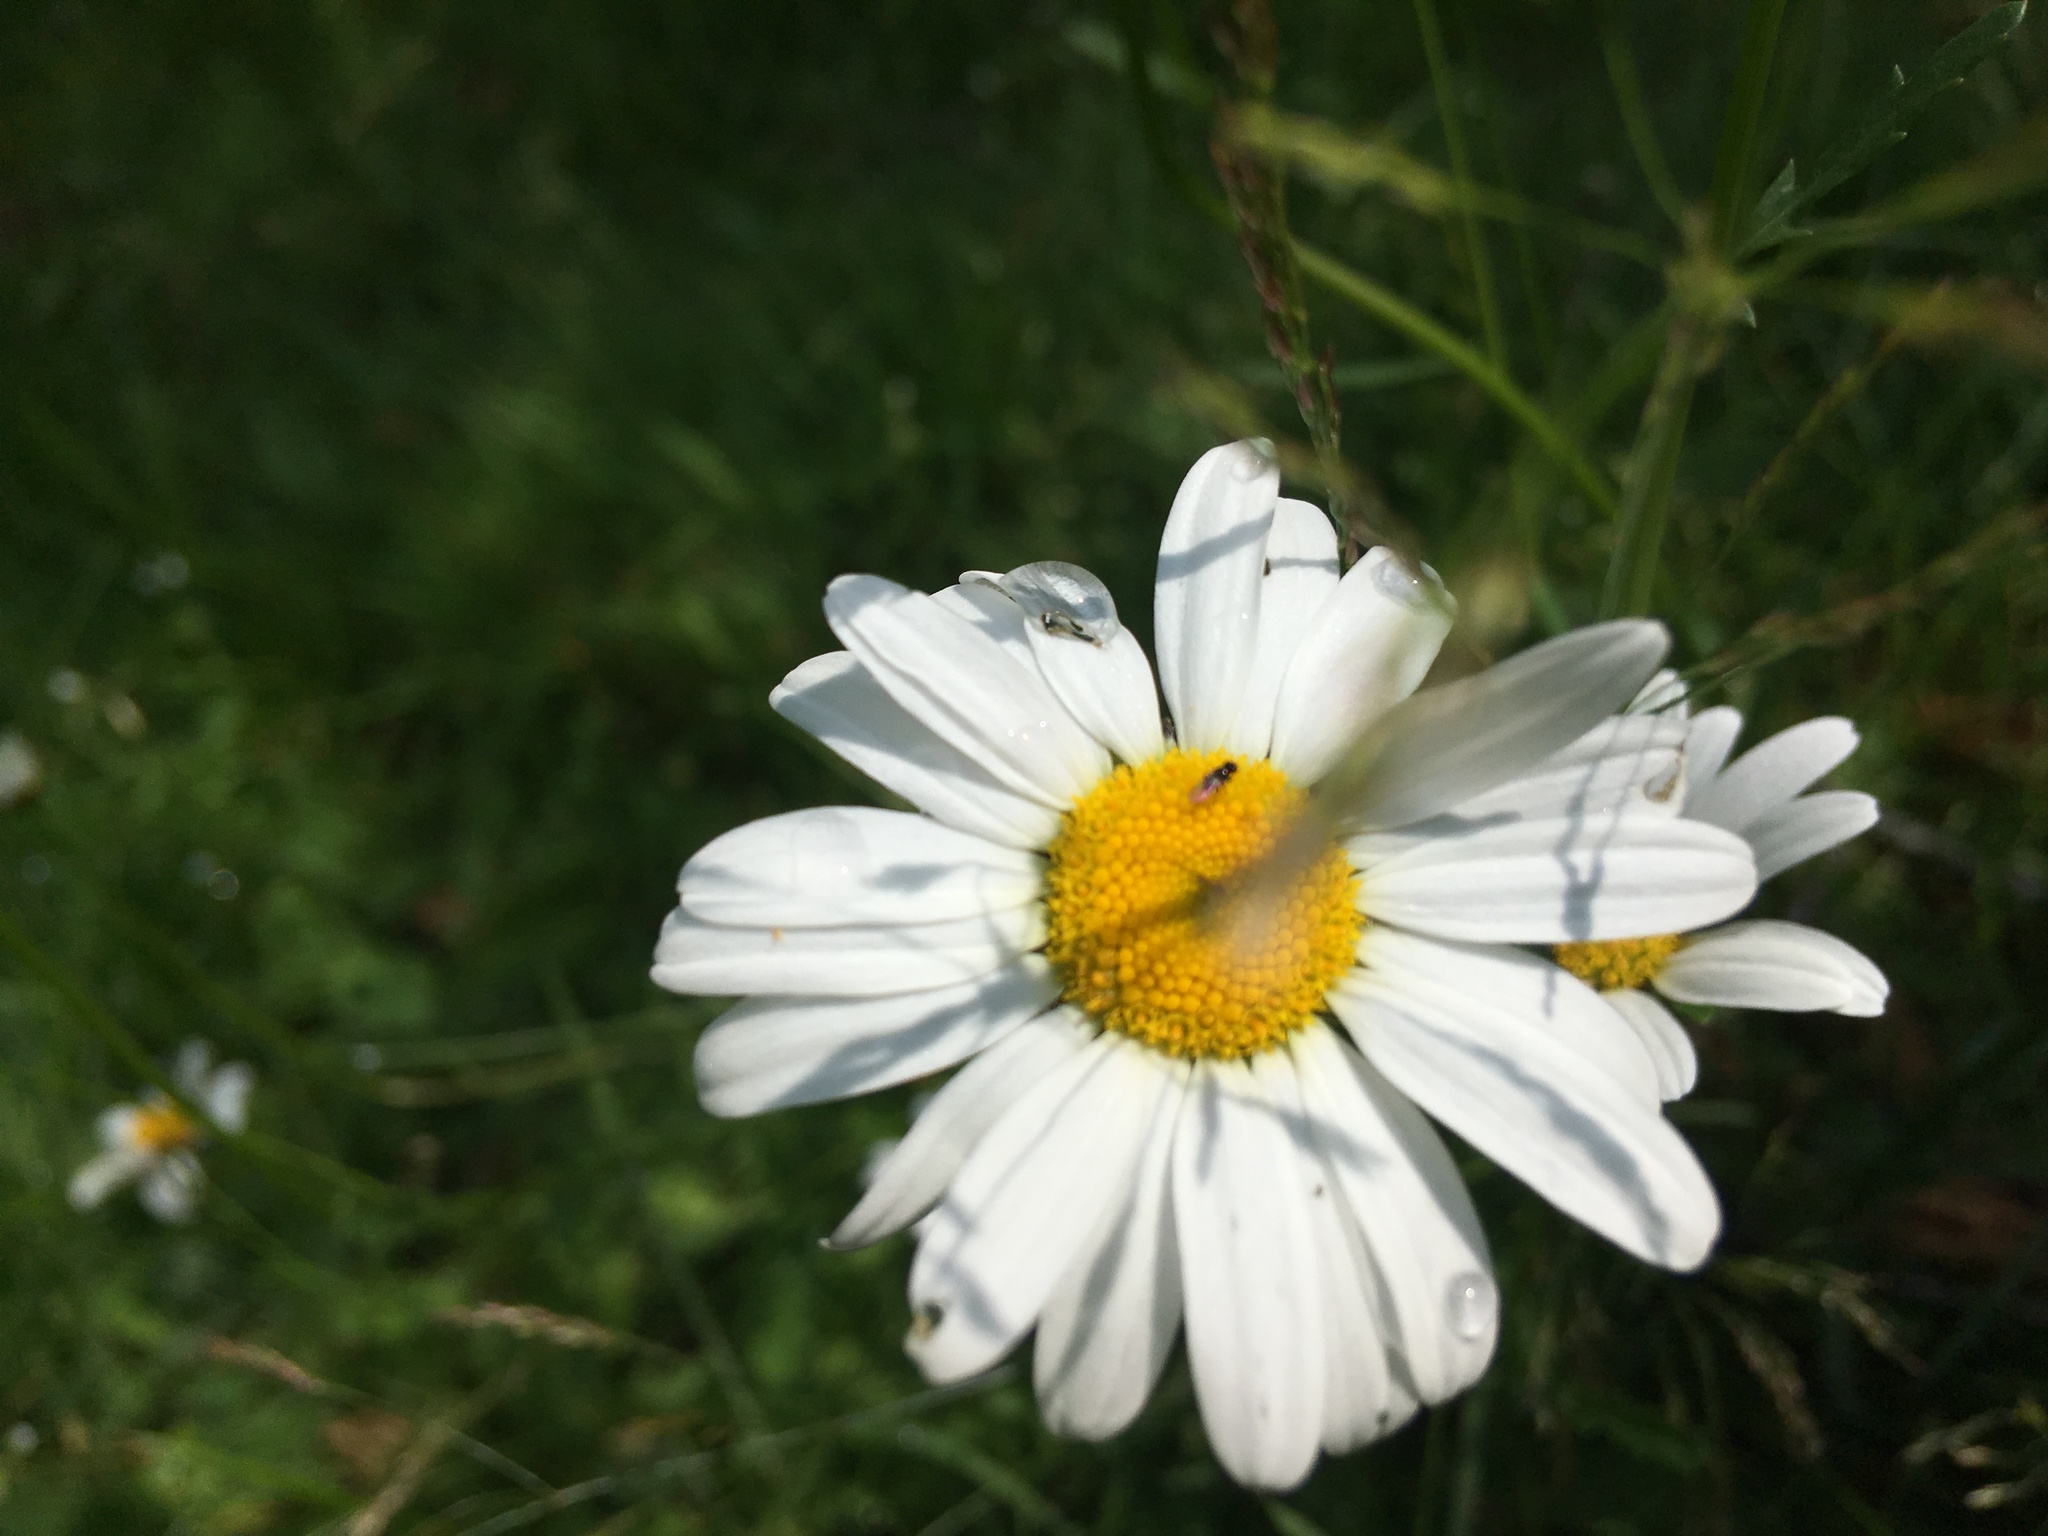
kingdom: Plantae
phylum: Tracheophyta
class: Magnoliopsida
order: Asterales
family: Asteraceae
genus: Leucanthemum
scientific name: Leucanthemum vulgare
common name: Oxeye daisy
